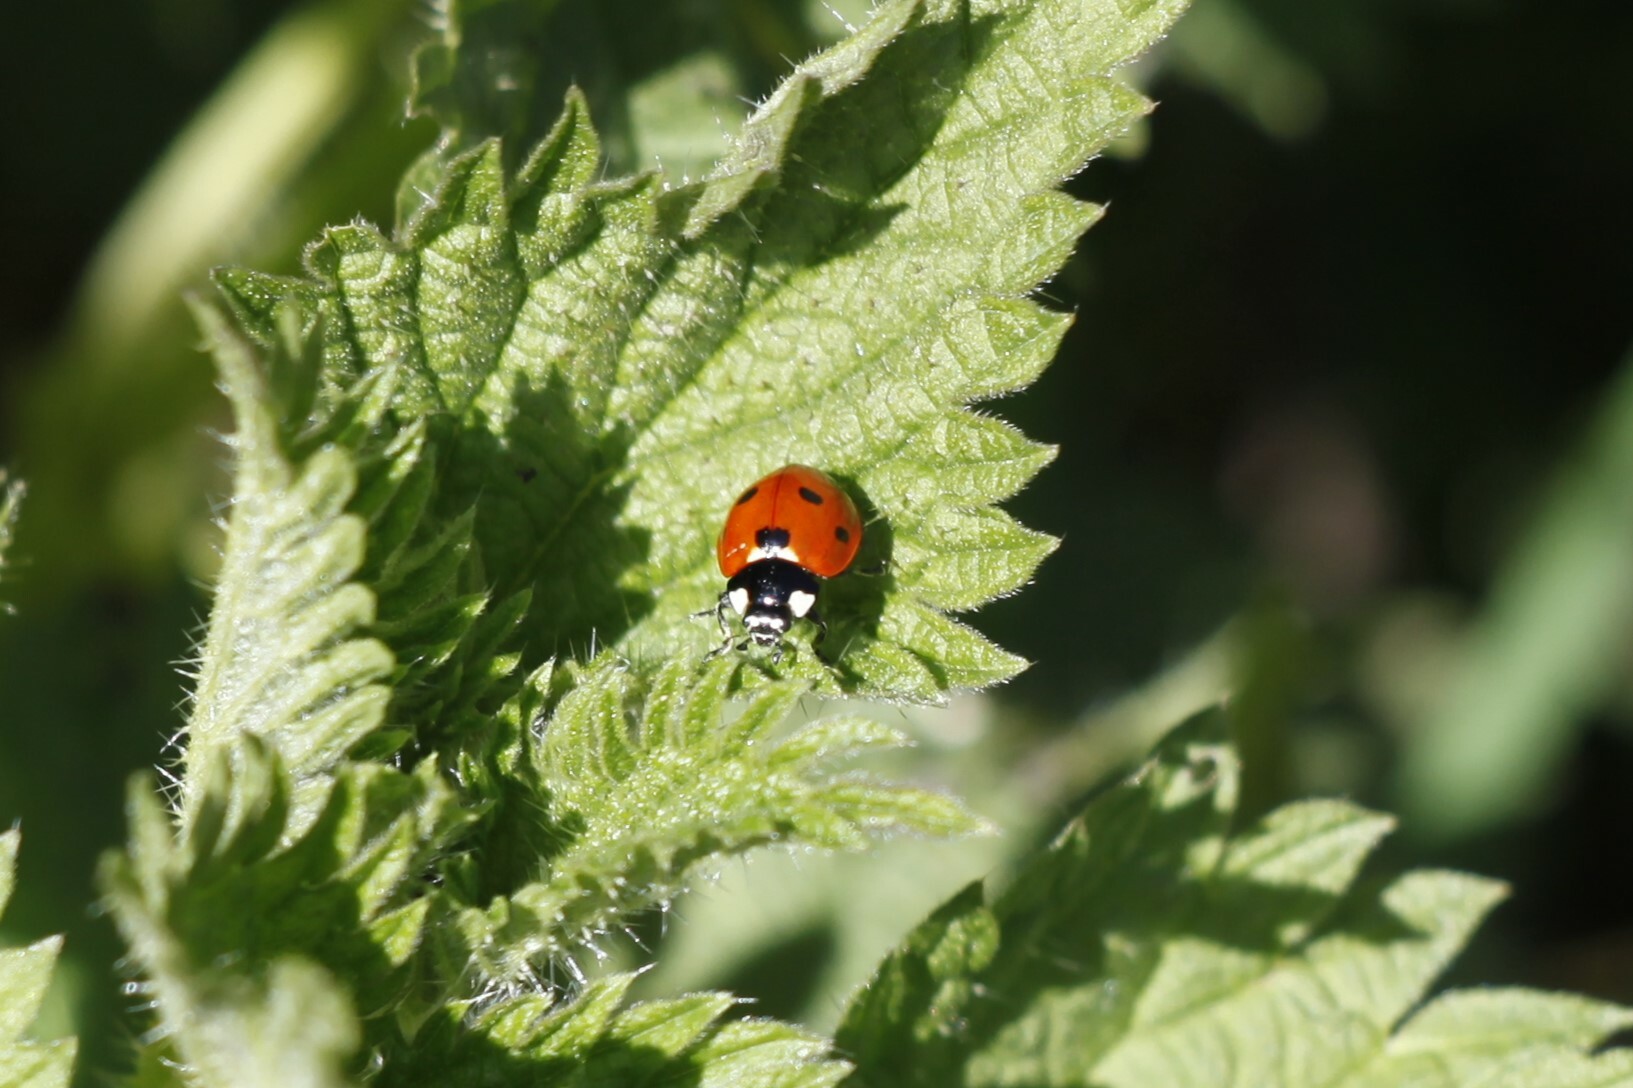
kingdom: Animalia
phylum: Arthropoda
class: Insecta
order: Coleoptera
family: Coccinellidae
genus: Coccinella
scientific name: Coccinella septempunctata
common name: Sevenspotted lady beetle
